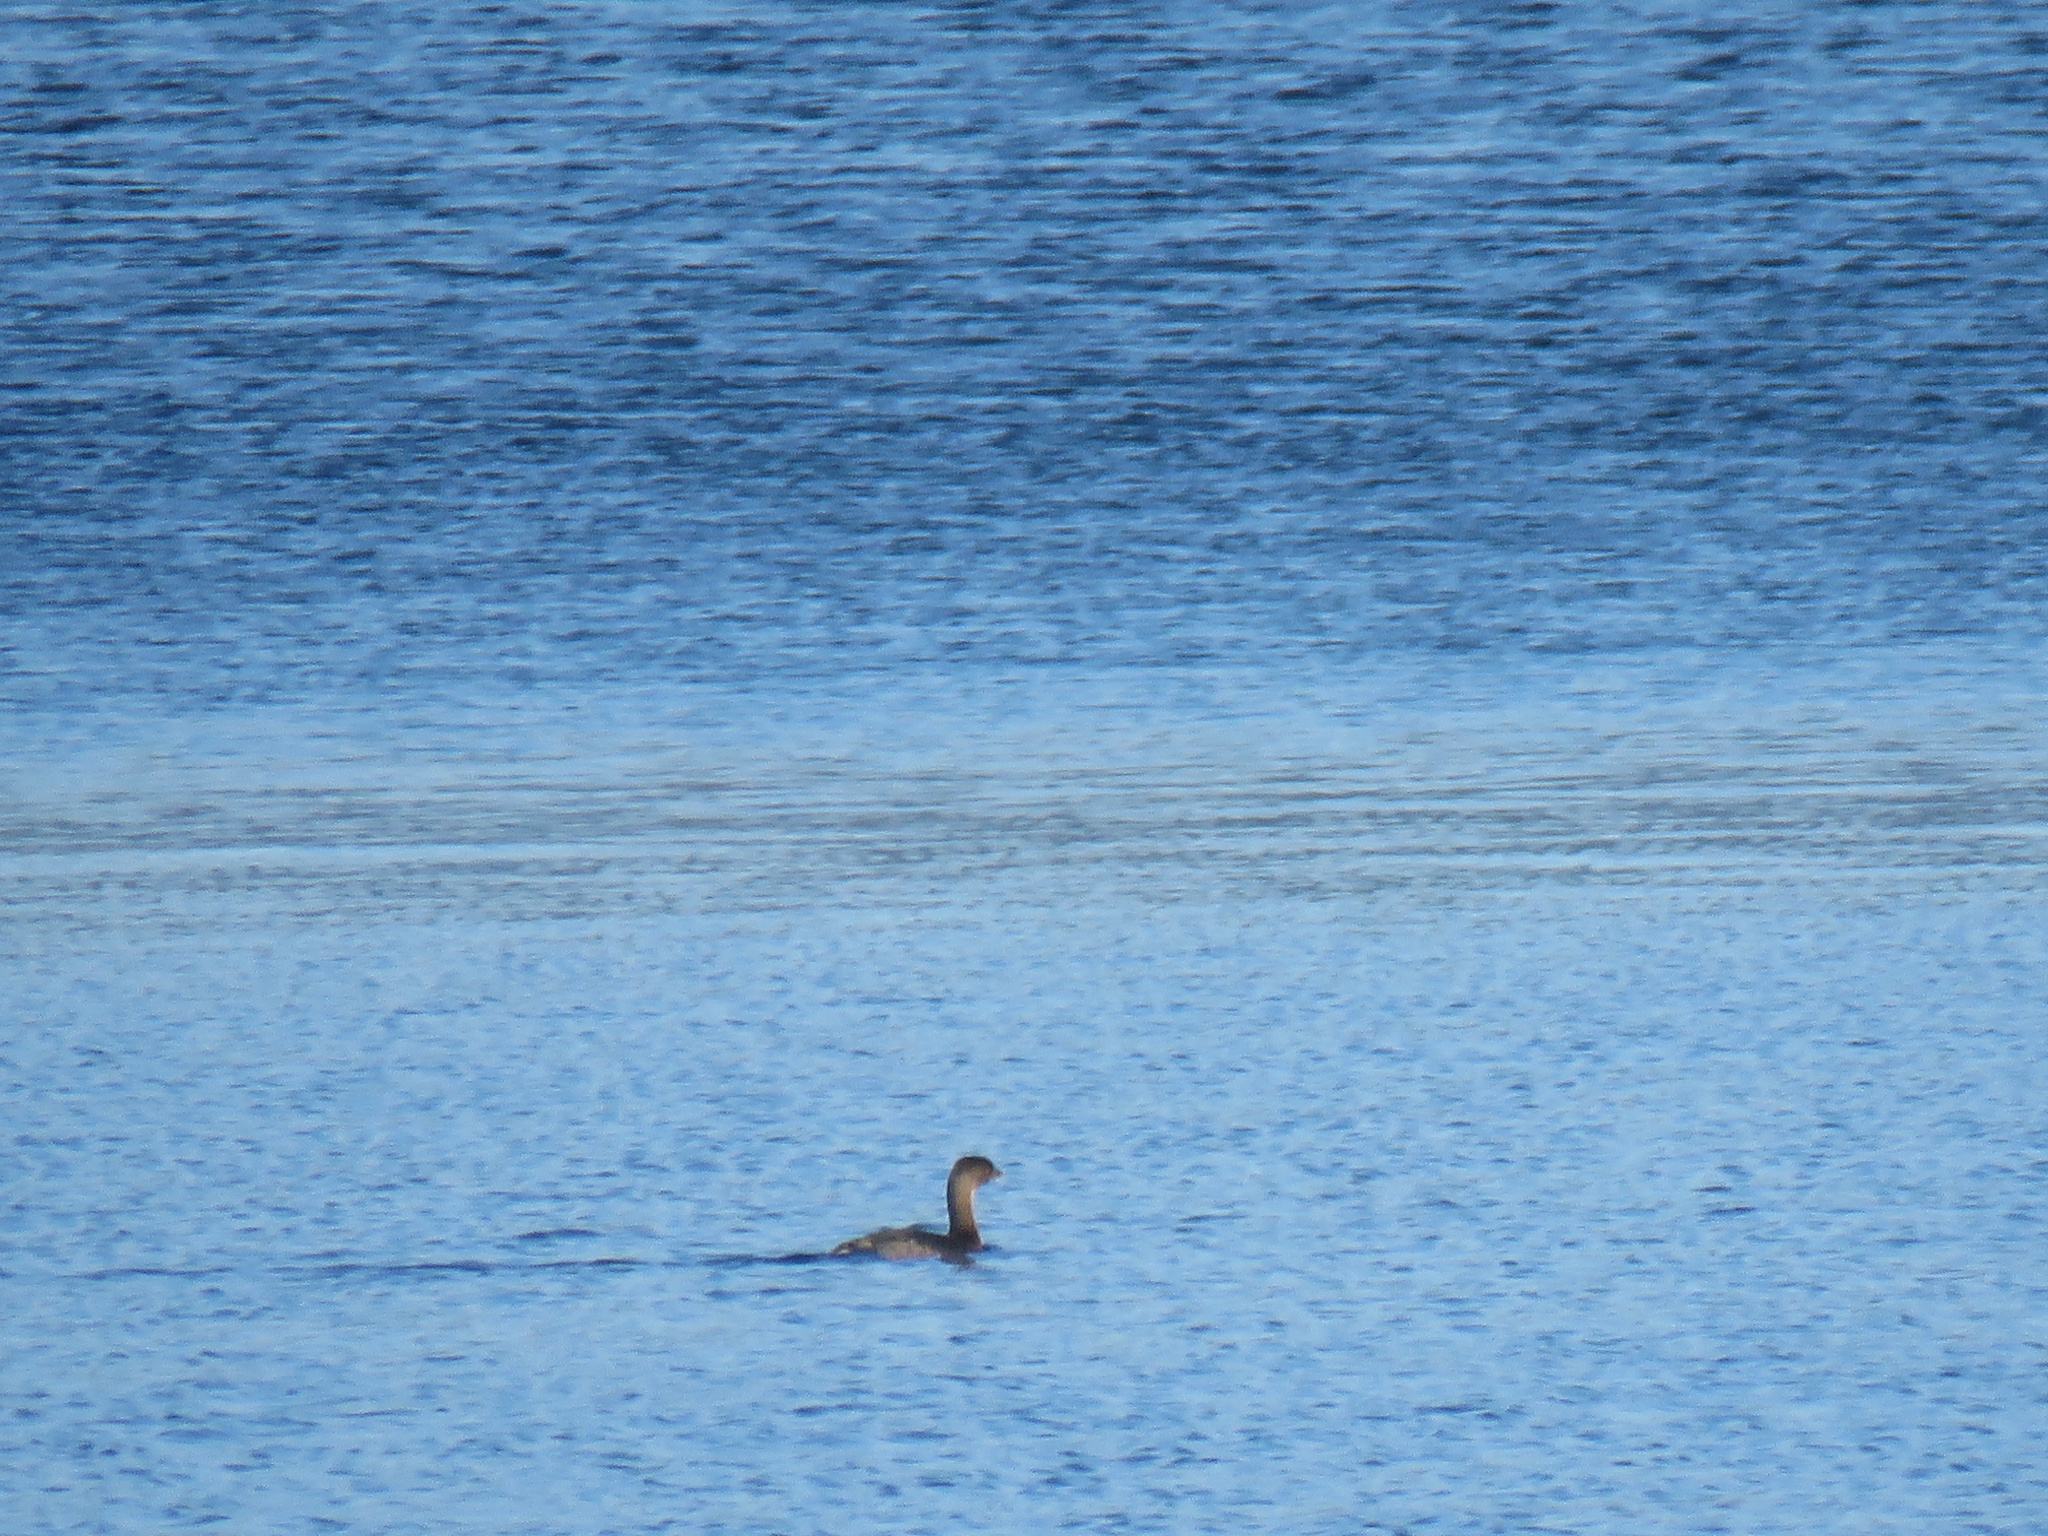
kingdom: Animalia
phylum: Chordata
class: Aves
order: Podicipediformes
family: Podicipedidae
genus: Podilymbus
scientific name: Podilymbus podiceps
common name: Pied-billed grebe
